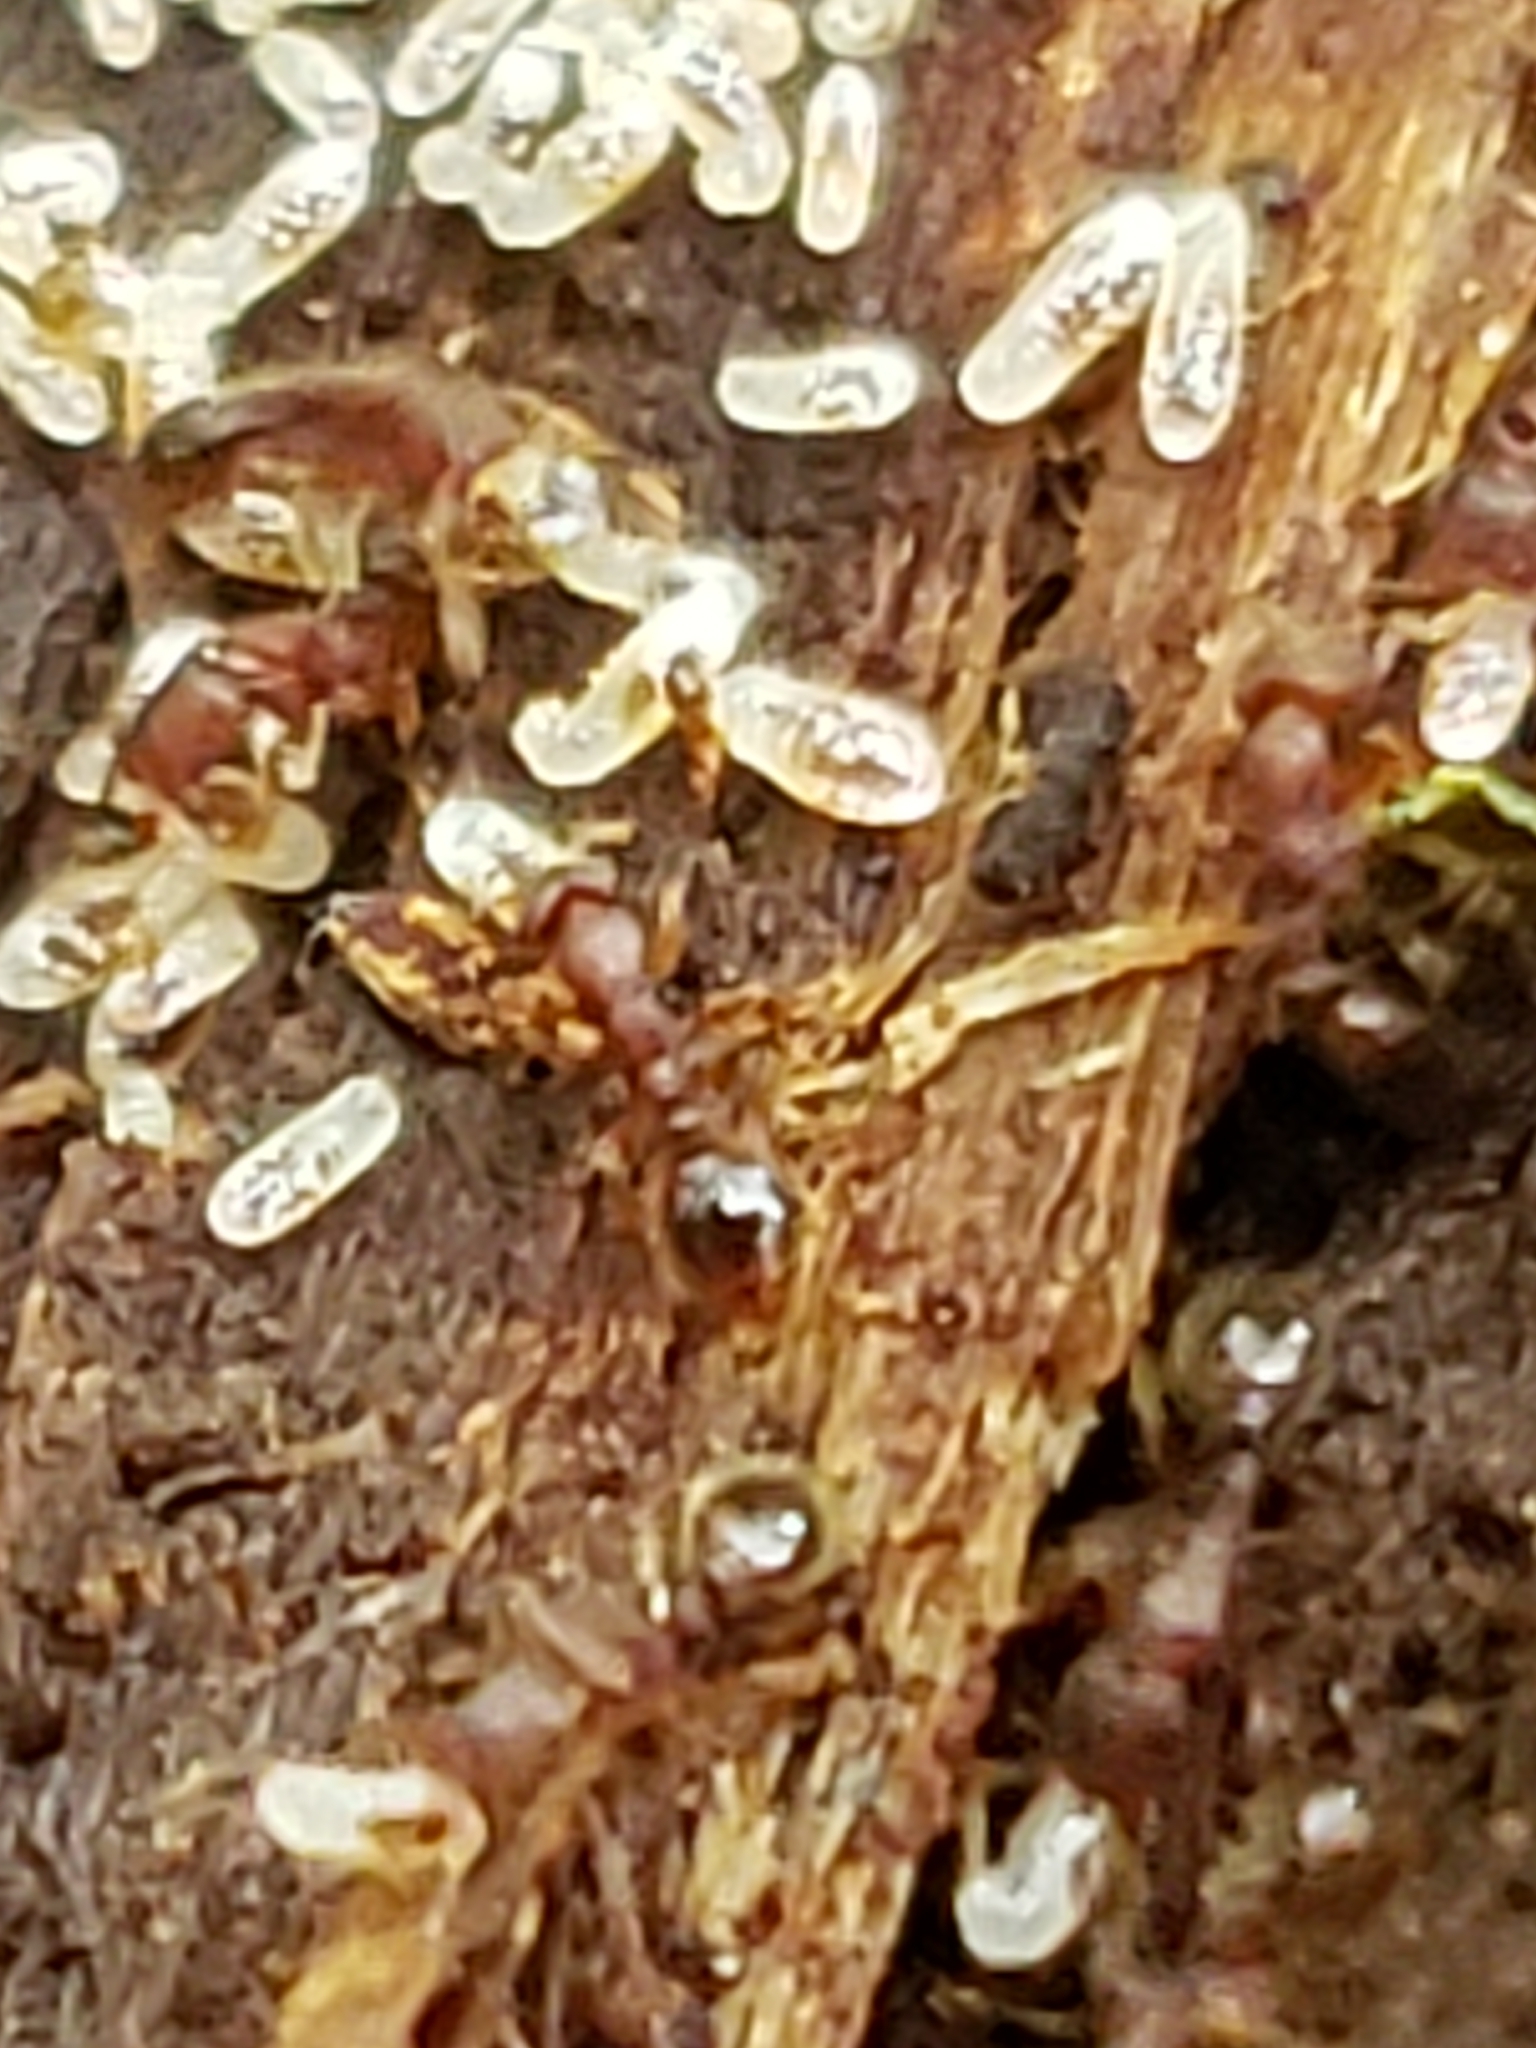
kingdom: Animalia
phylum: Arthropoda
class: Insecta
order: Hymenoptera
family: Formicidae
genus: Vollenhovia
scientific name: Vollenhovia emeryi
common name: Ant
